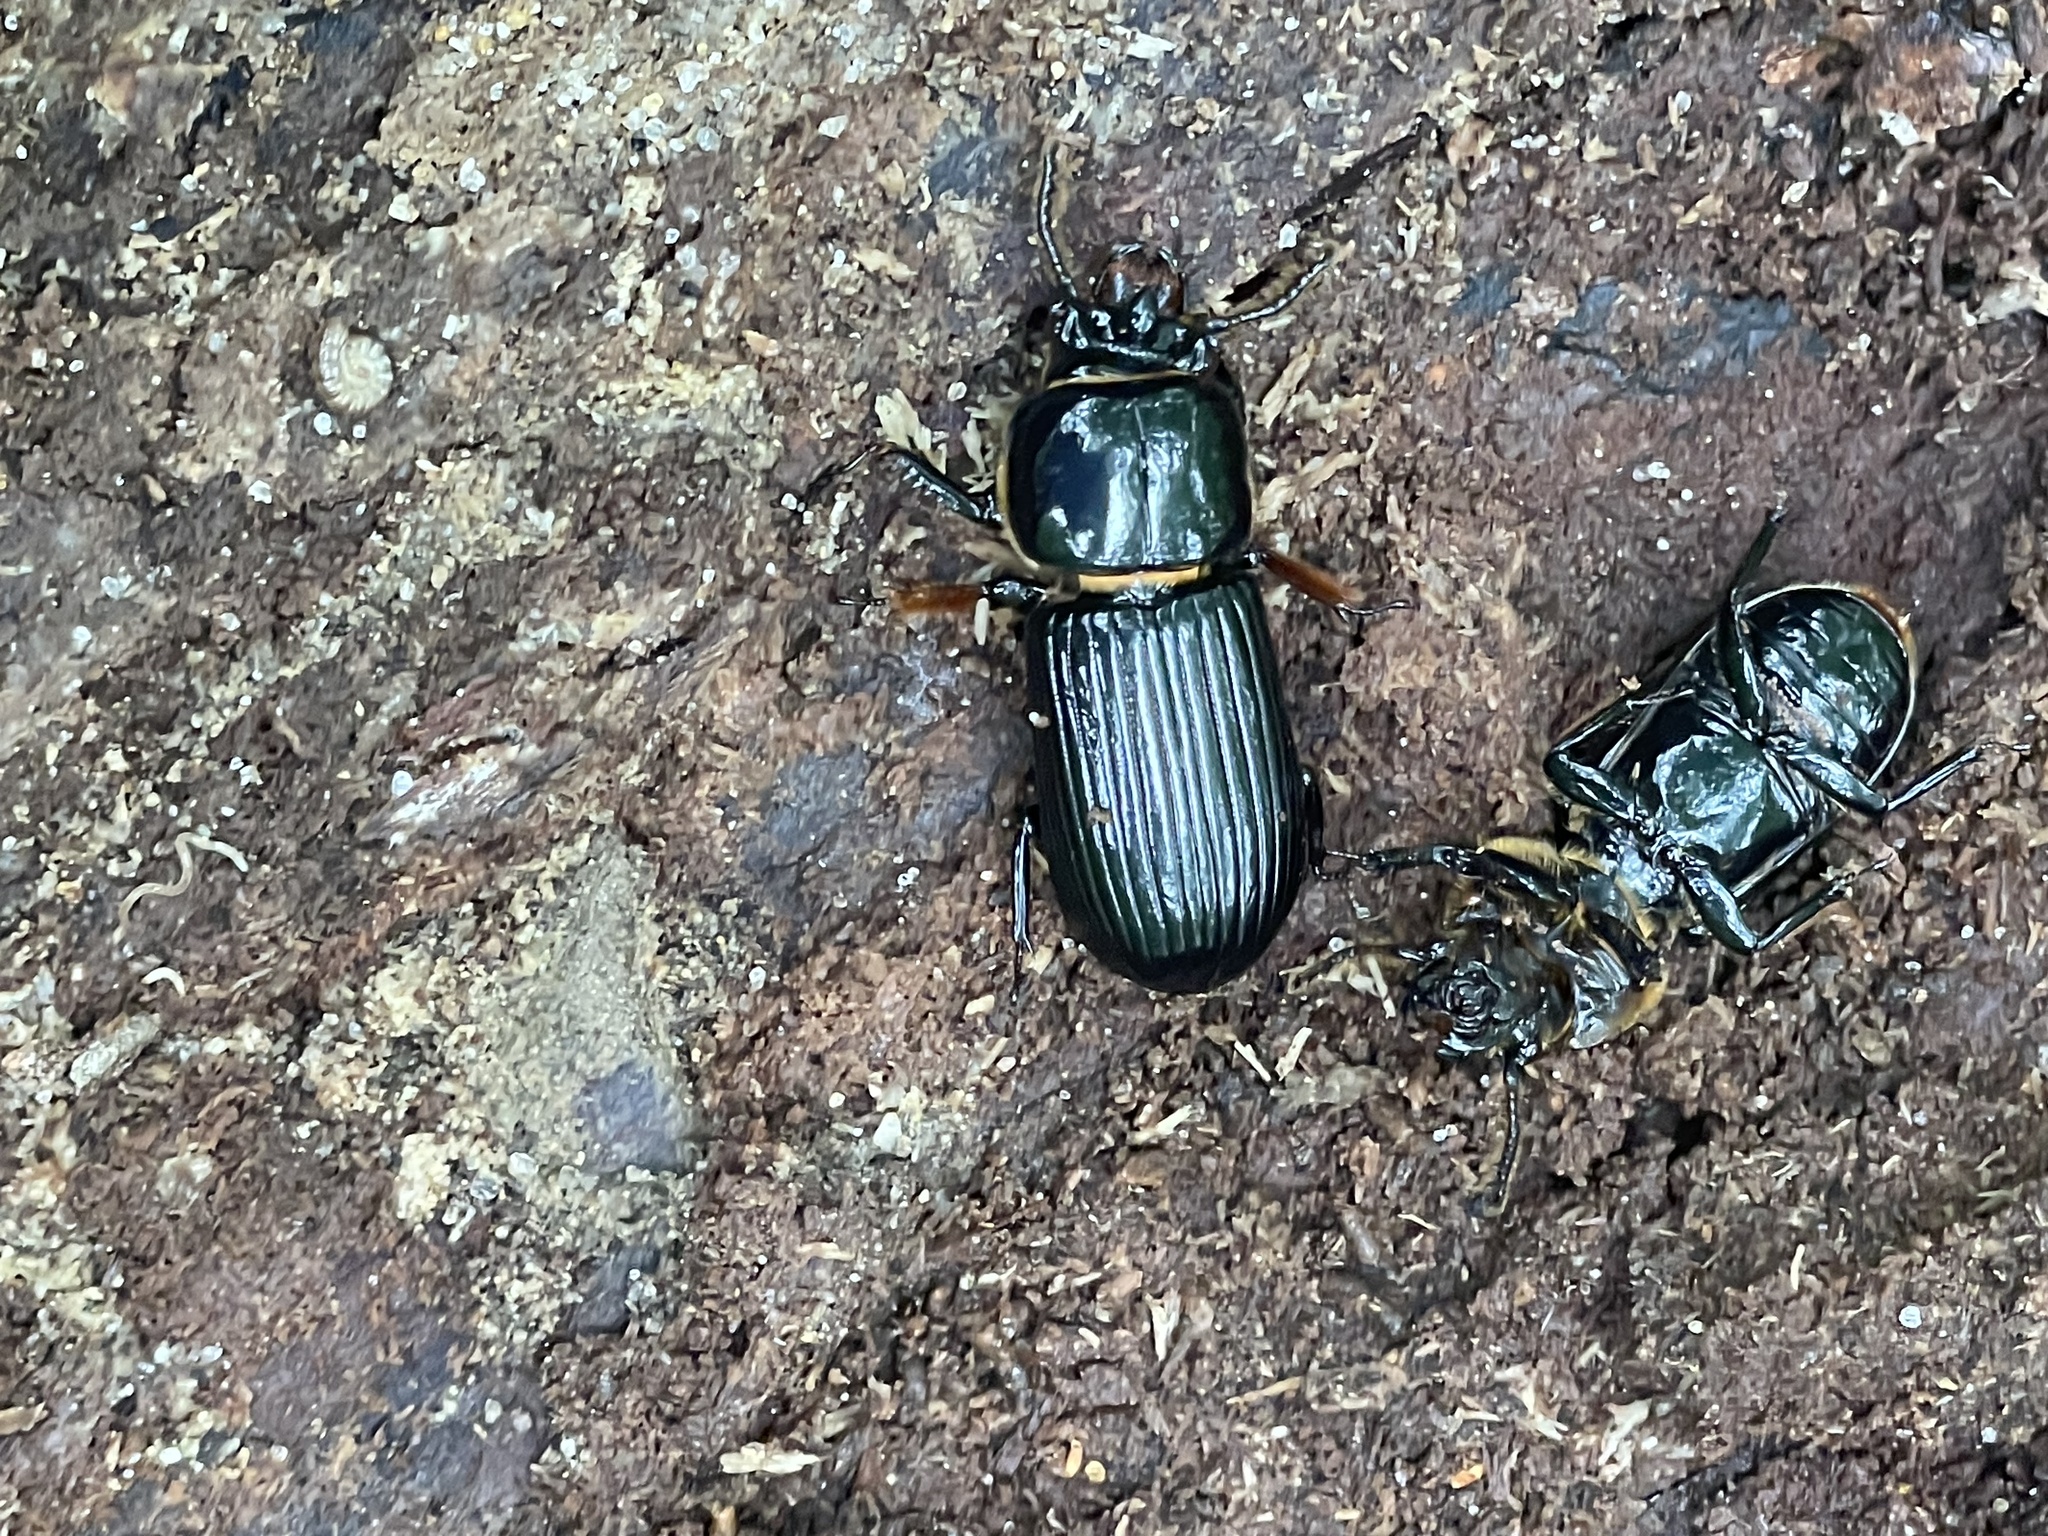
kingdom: Animalia
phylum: Arthropoda
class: Insecta
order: Coleoptera
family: Passalidae
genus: Odontotaenius
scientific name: Odontotaenius disjunctus
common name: Patent leather beetle
